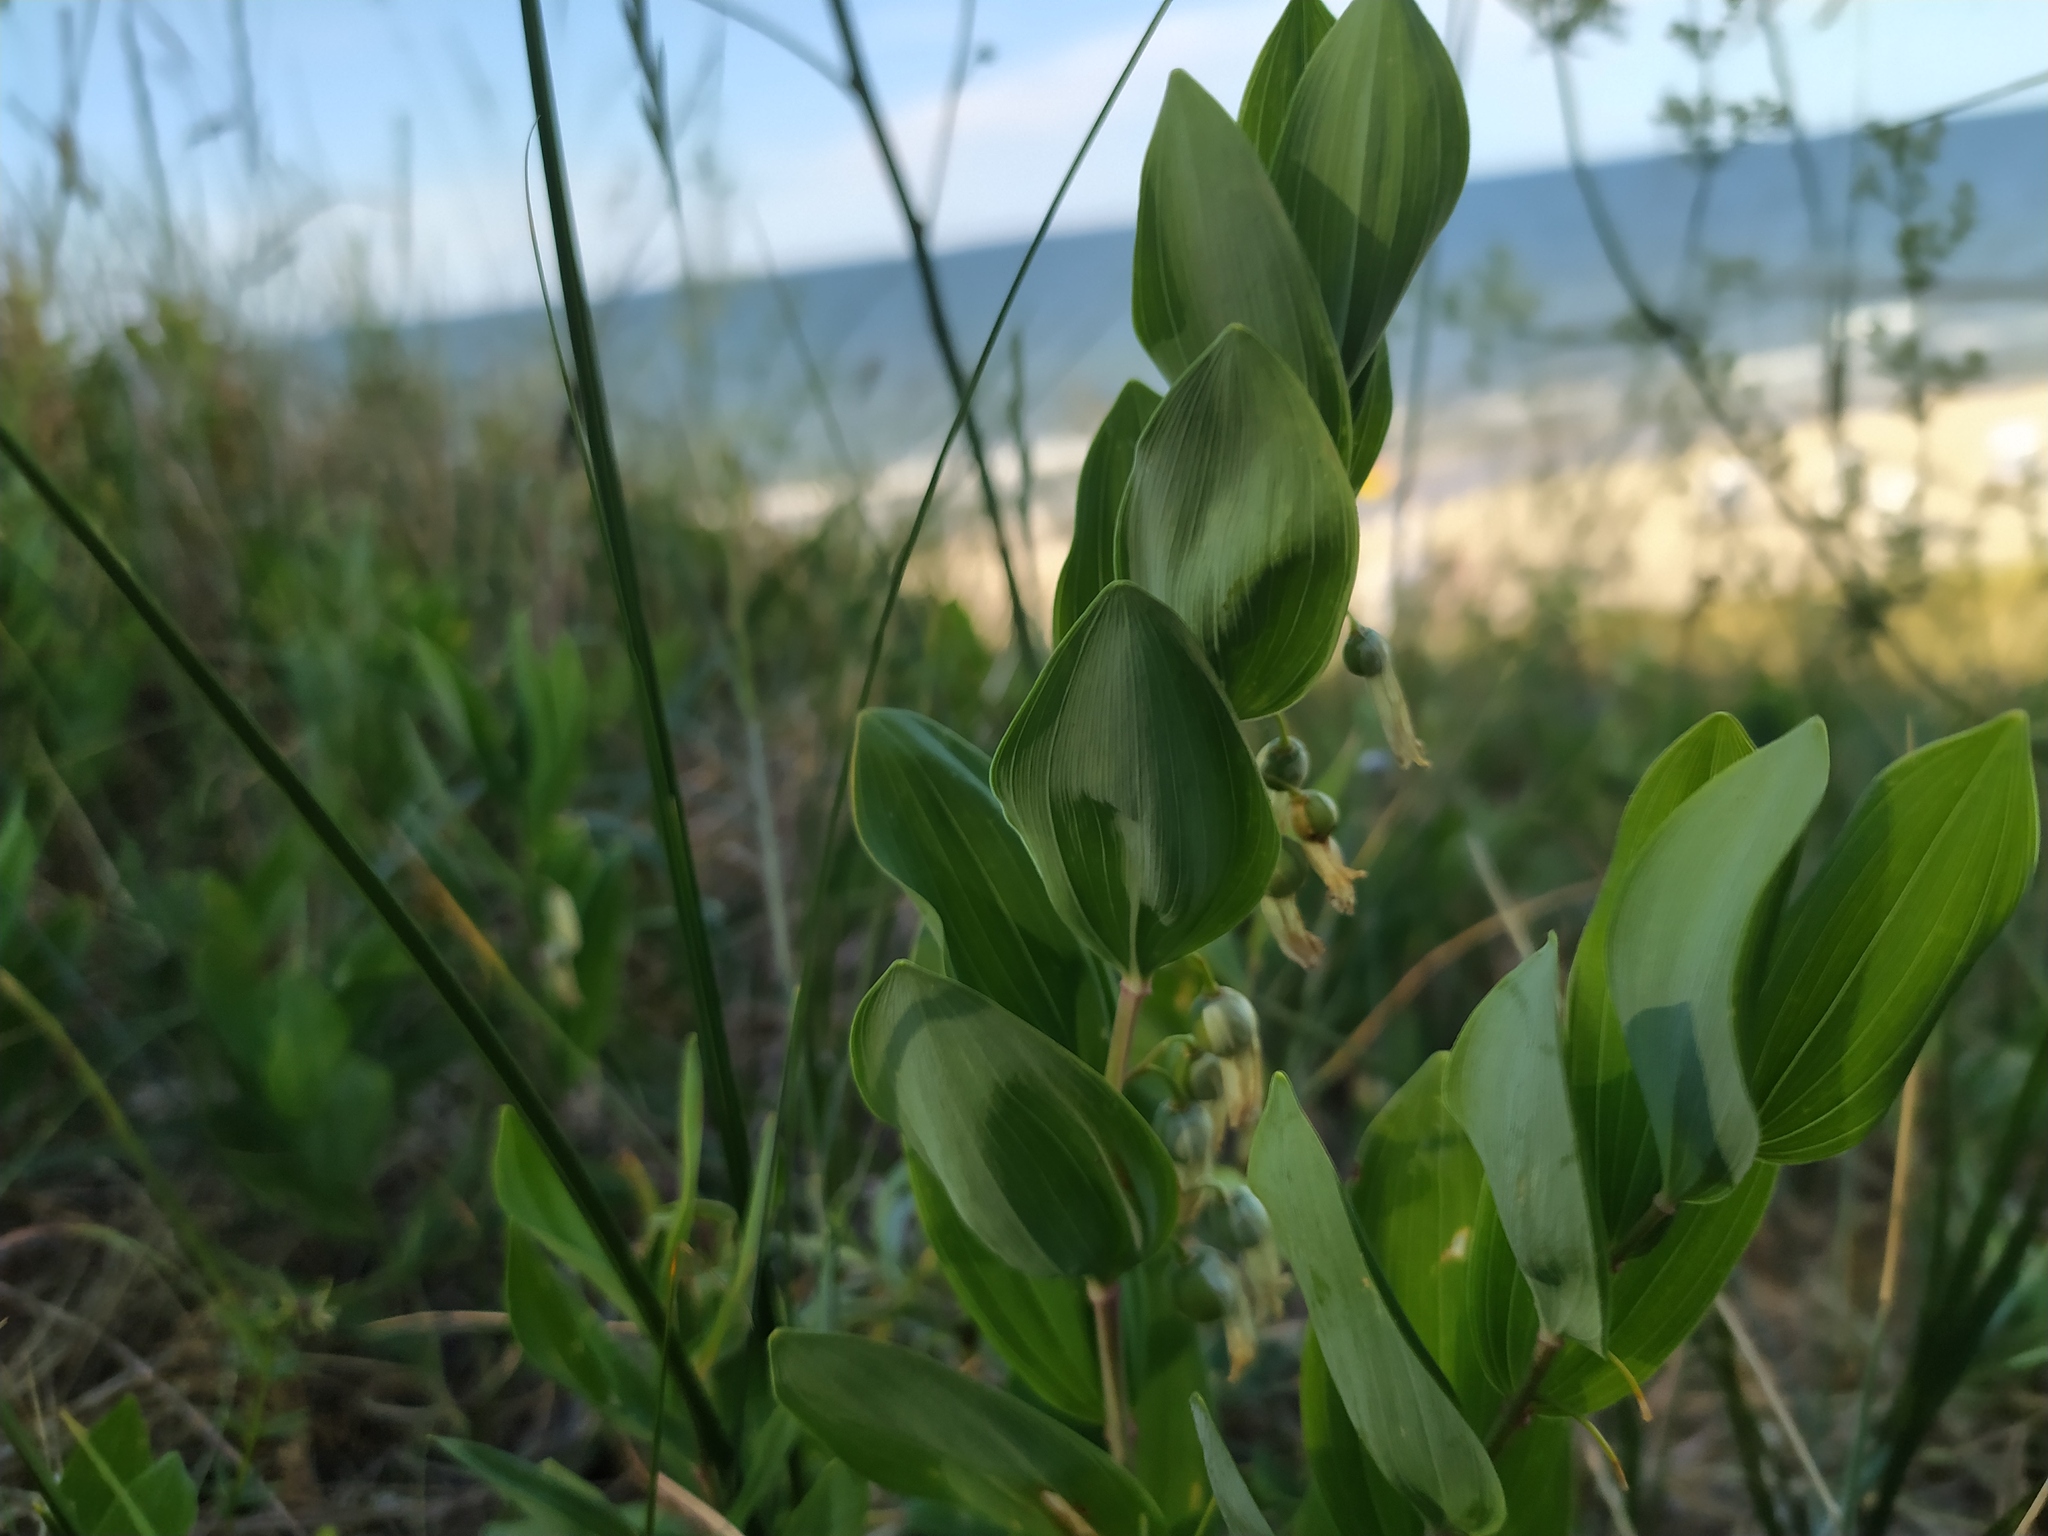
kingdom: Plantae
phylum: Tracheophyta
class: Liliopsida
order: Asparagales
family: Asparagaceae
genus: Polygonatum
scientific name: Polygonatum odoratum
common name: Angular solomon's-seal
